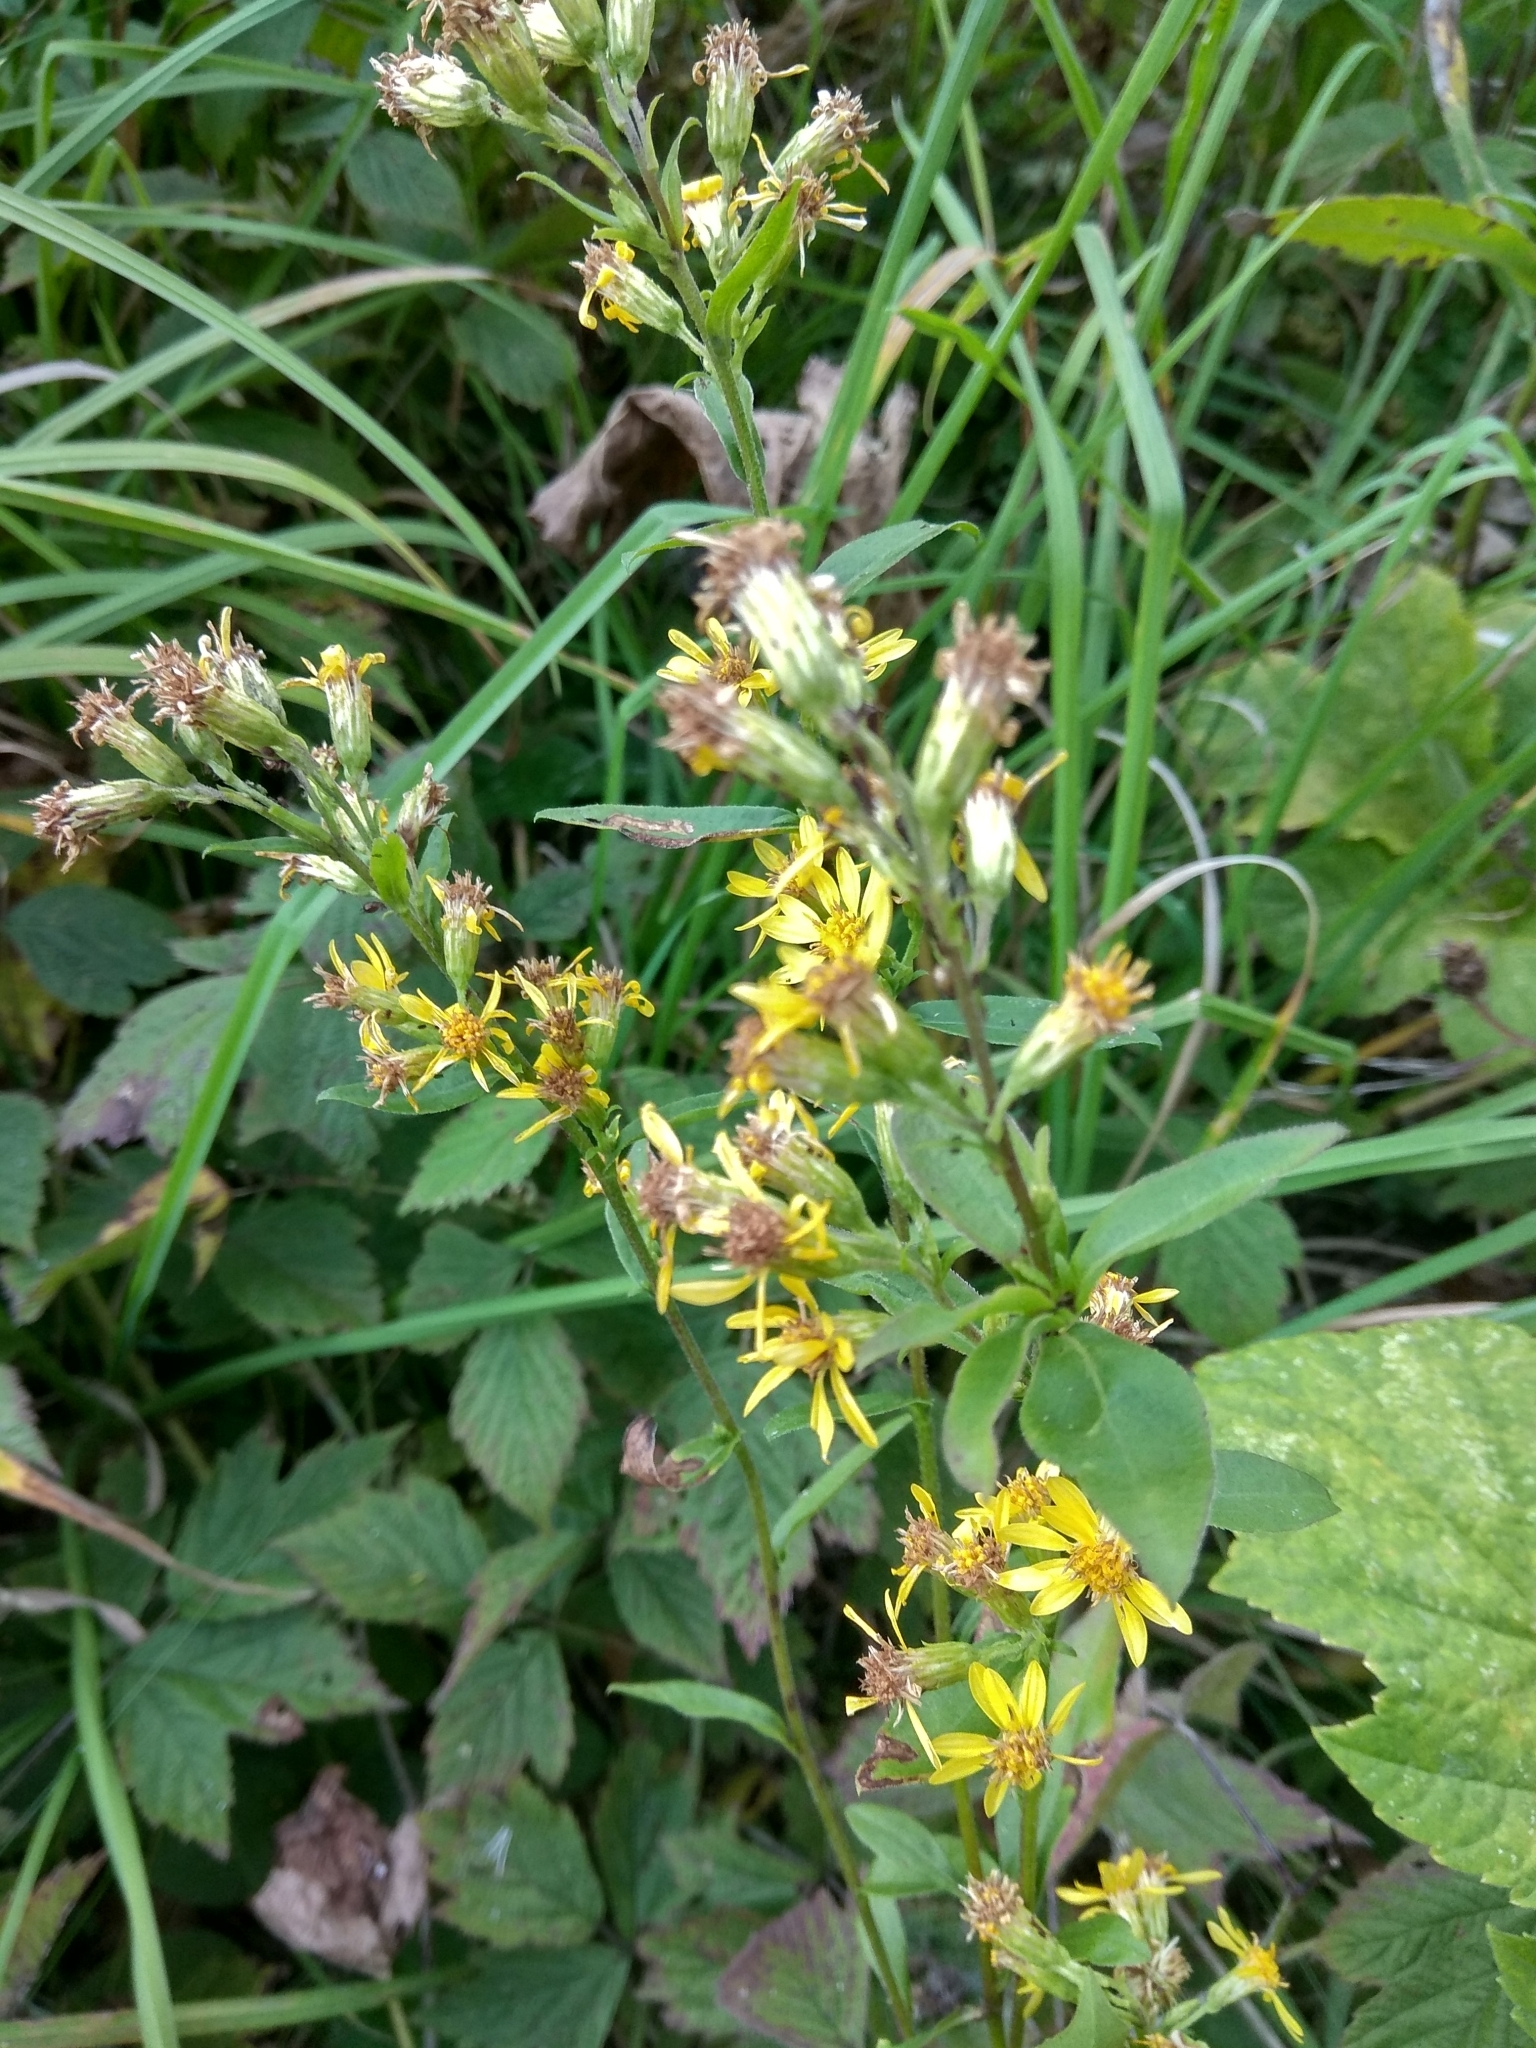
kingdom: Plantae
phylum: Tracheophyta
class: Magnoliopsida
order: Asterales
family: Asteraceae
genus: Solidago
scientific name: Solidago virgaurea
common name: Goldenrod
